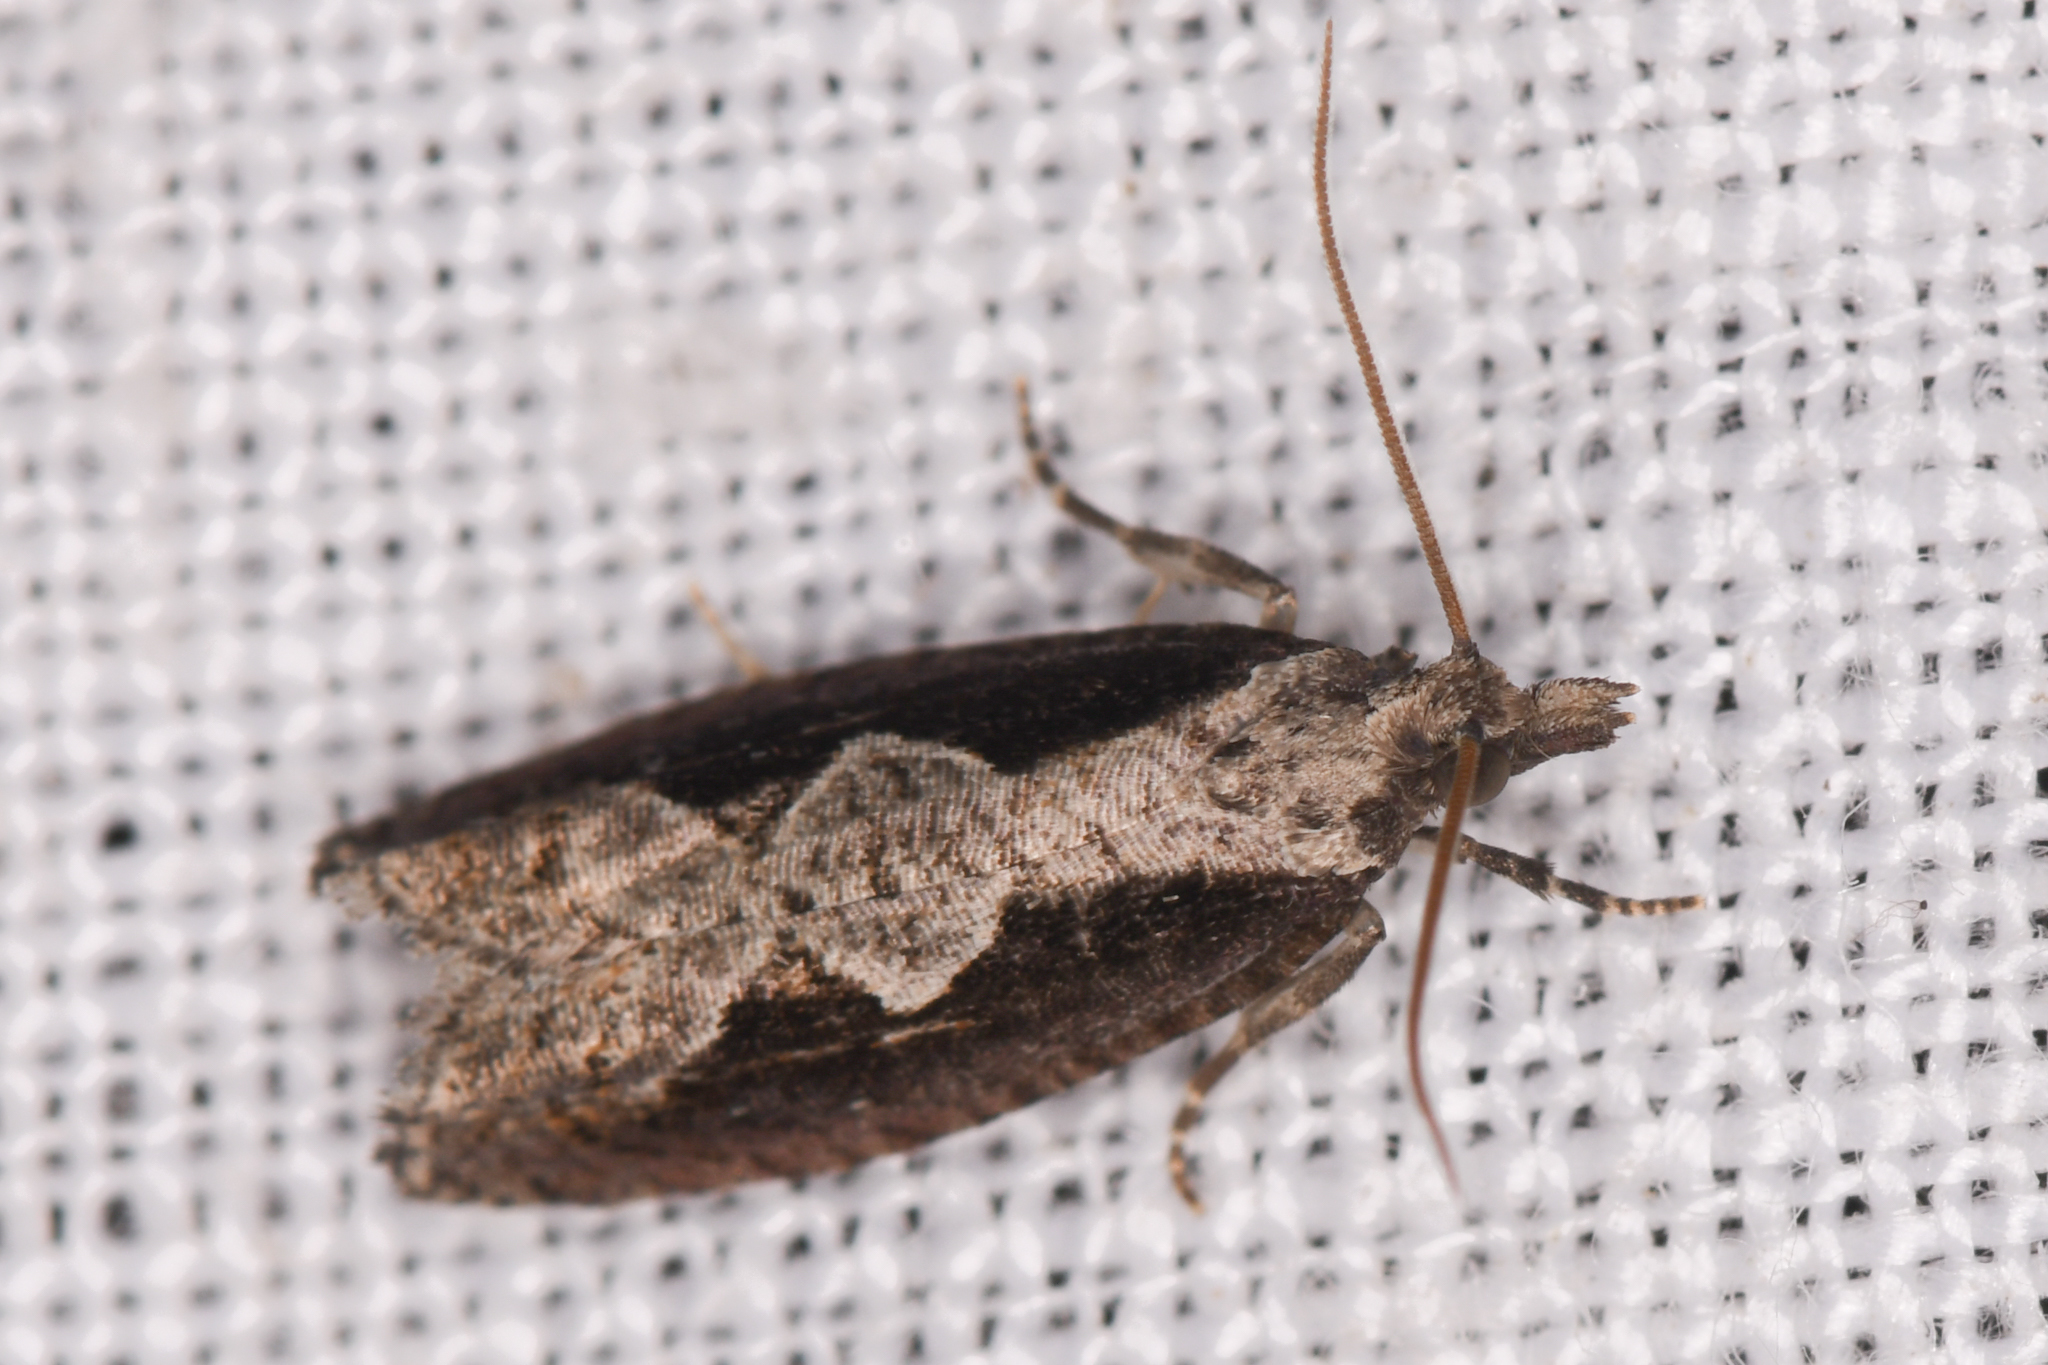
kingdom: Animalia
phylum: Arthropoda
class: Insecta
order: Lepidoptera
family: Tortricidae
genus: Epinotia
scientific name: Epinotia lindana
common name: Diamondback epinotia moth
